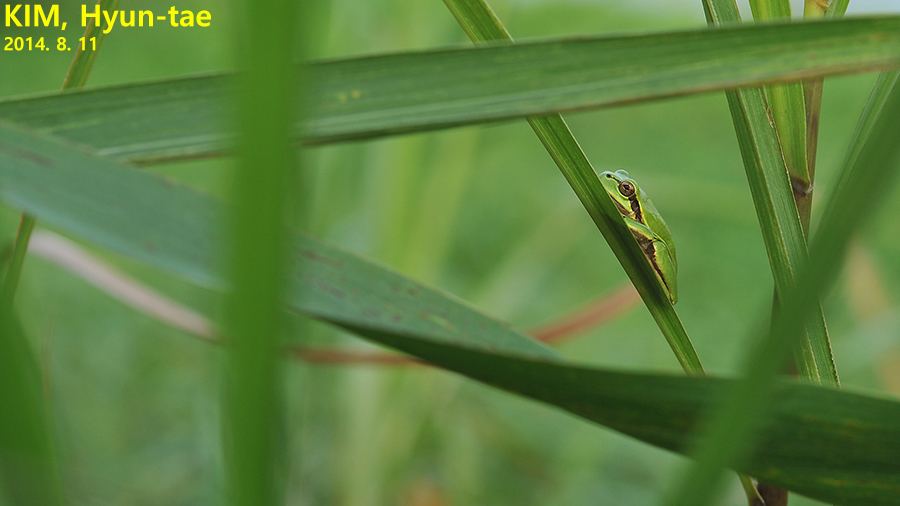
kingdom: Animalia
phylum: Chordata
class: Amphibia
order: Anura
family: Hylidae
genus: Dryophytes
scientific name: Dryophytes japonicus
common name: Japanese treefrog
